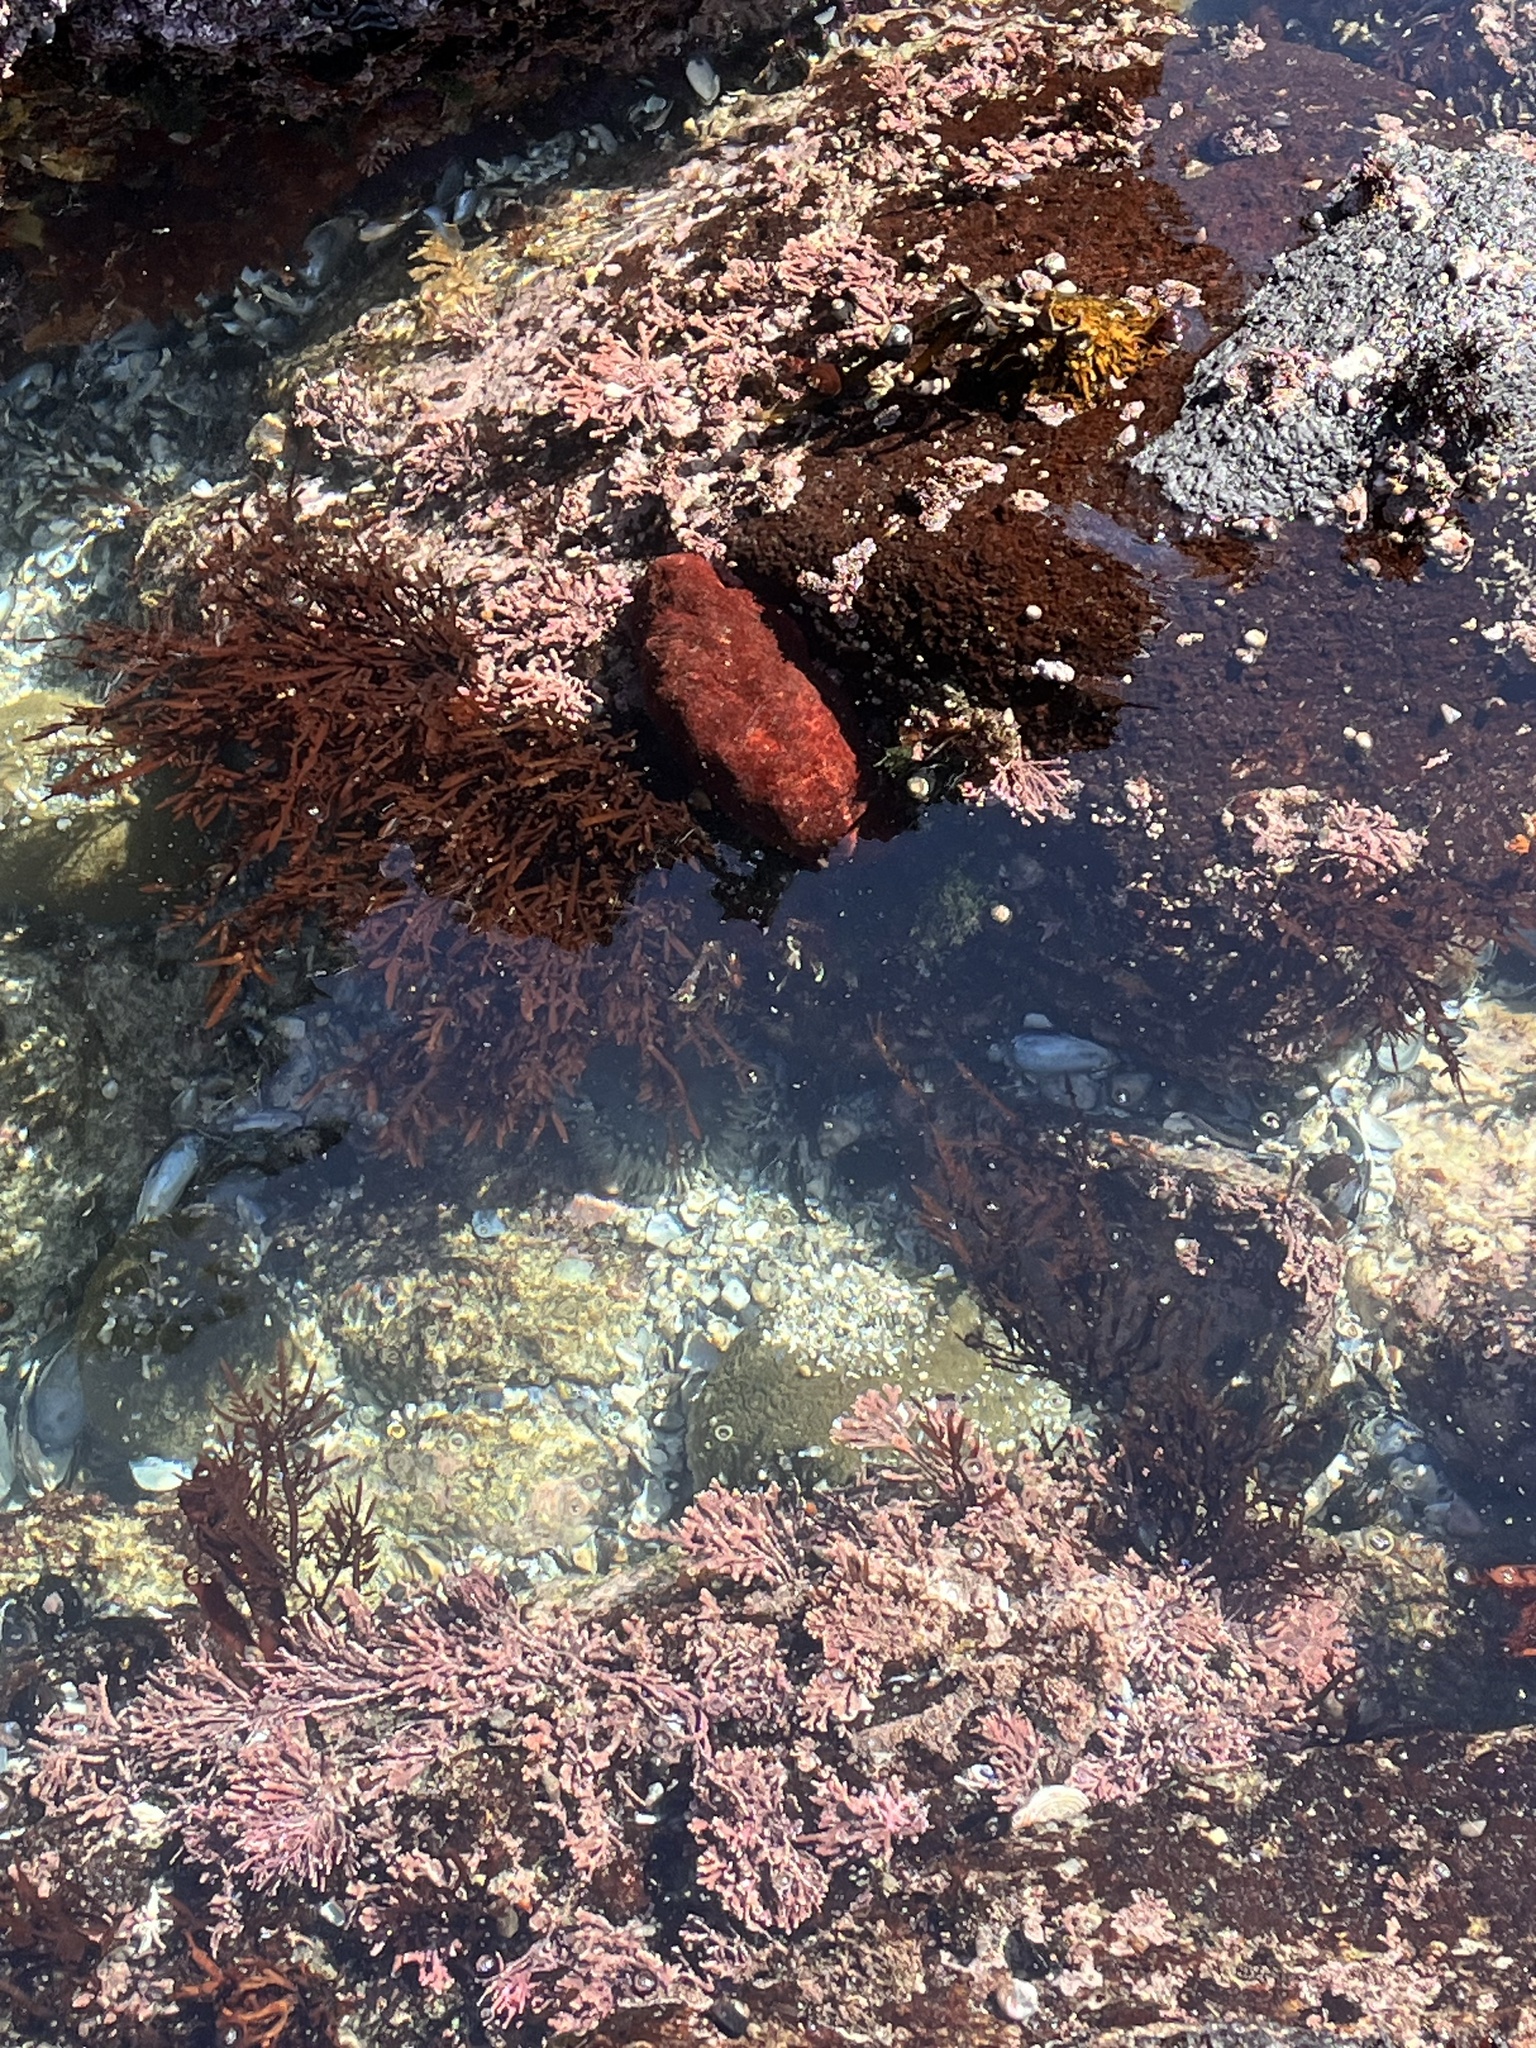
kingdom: Animalia
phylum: Mollusca
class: Polyplacophora
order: Chitonida
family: Acanthochitonidae
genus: Cryptochiton
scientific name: Cryptochiton stelleri
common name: Giant pacific chiton
